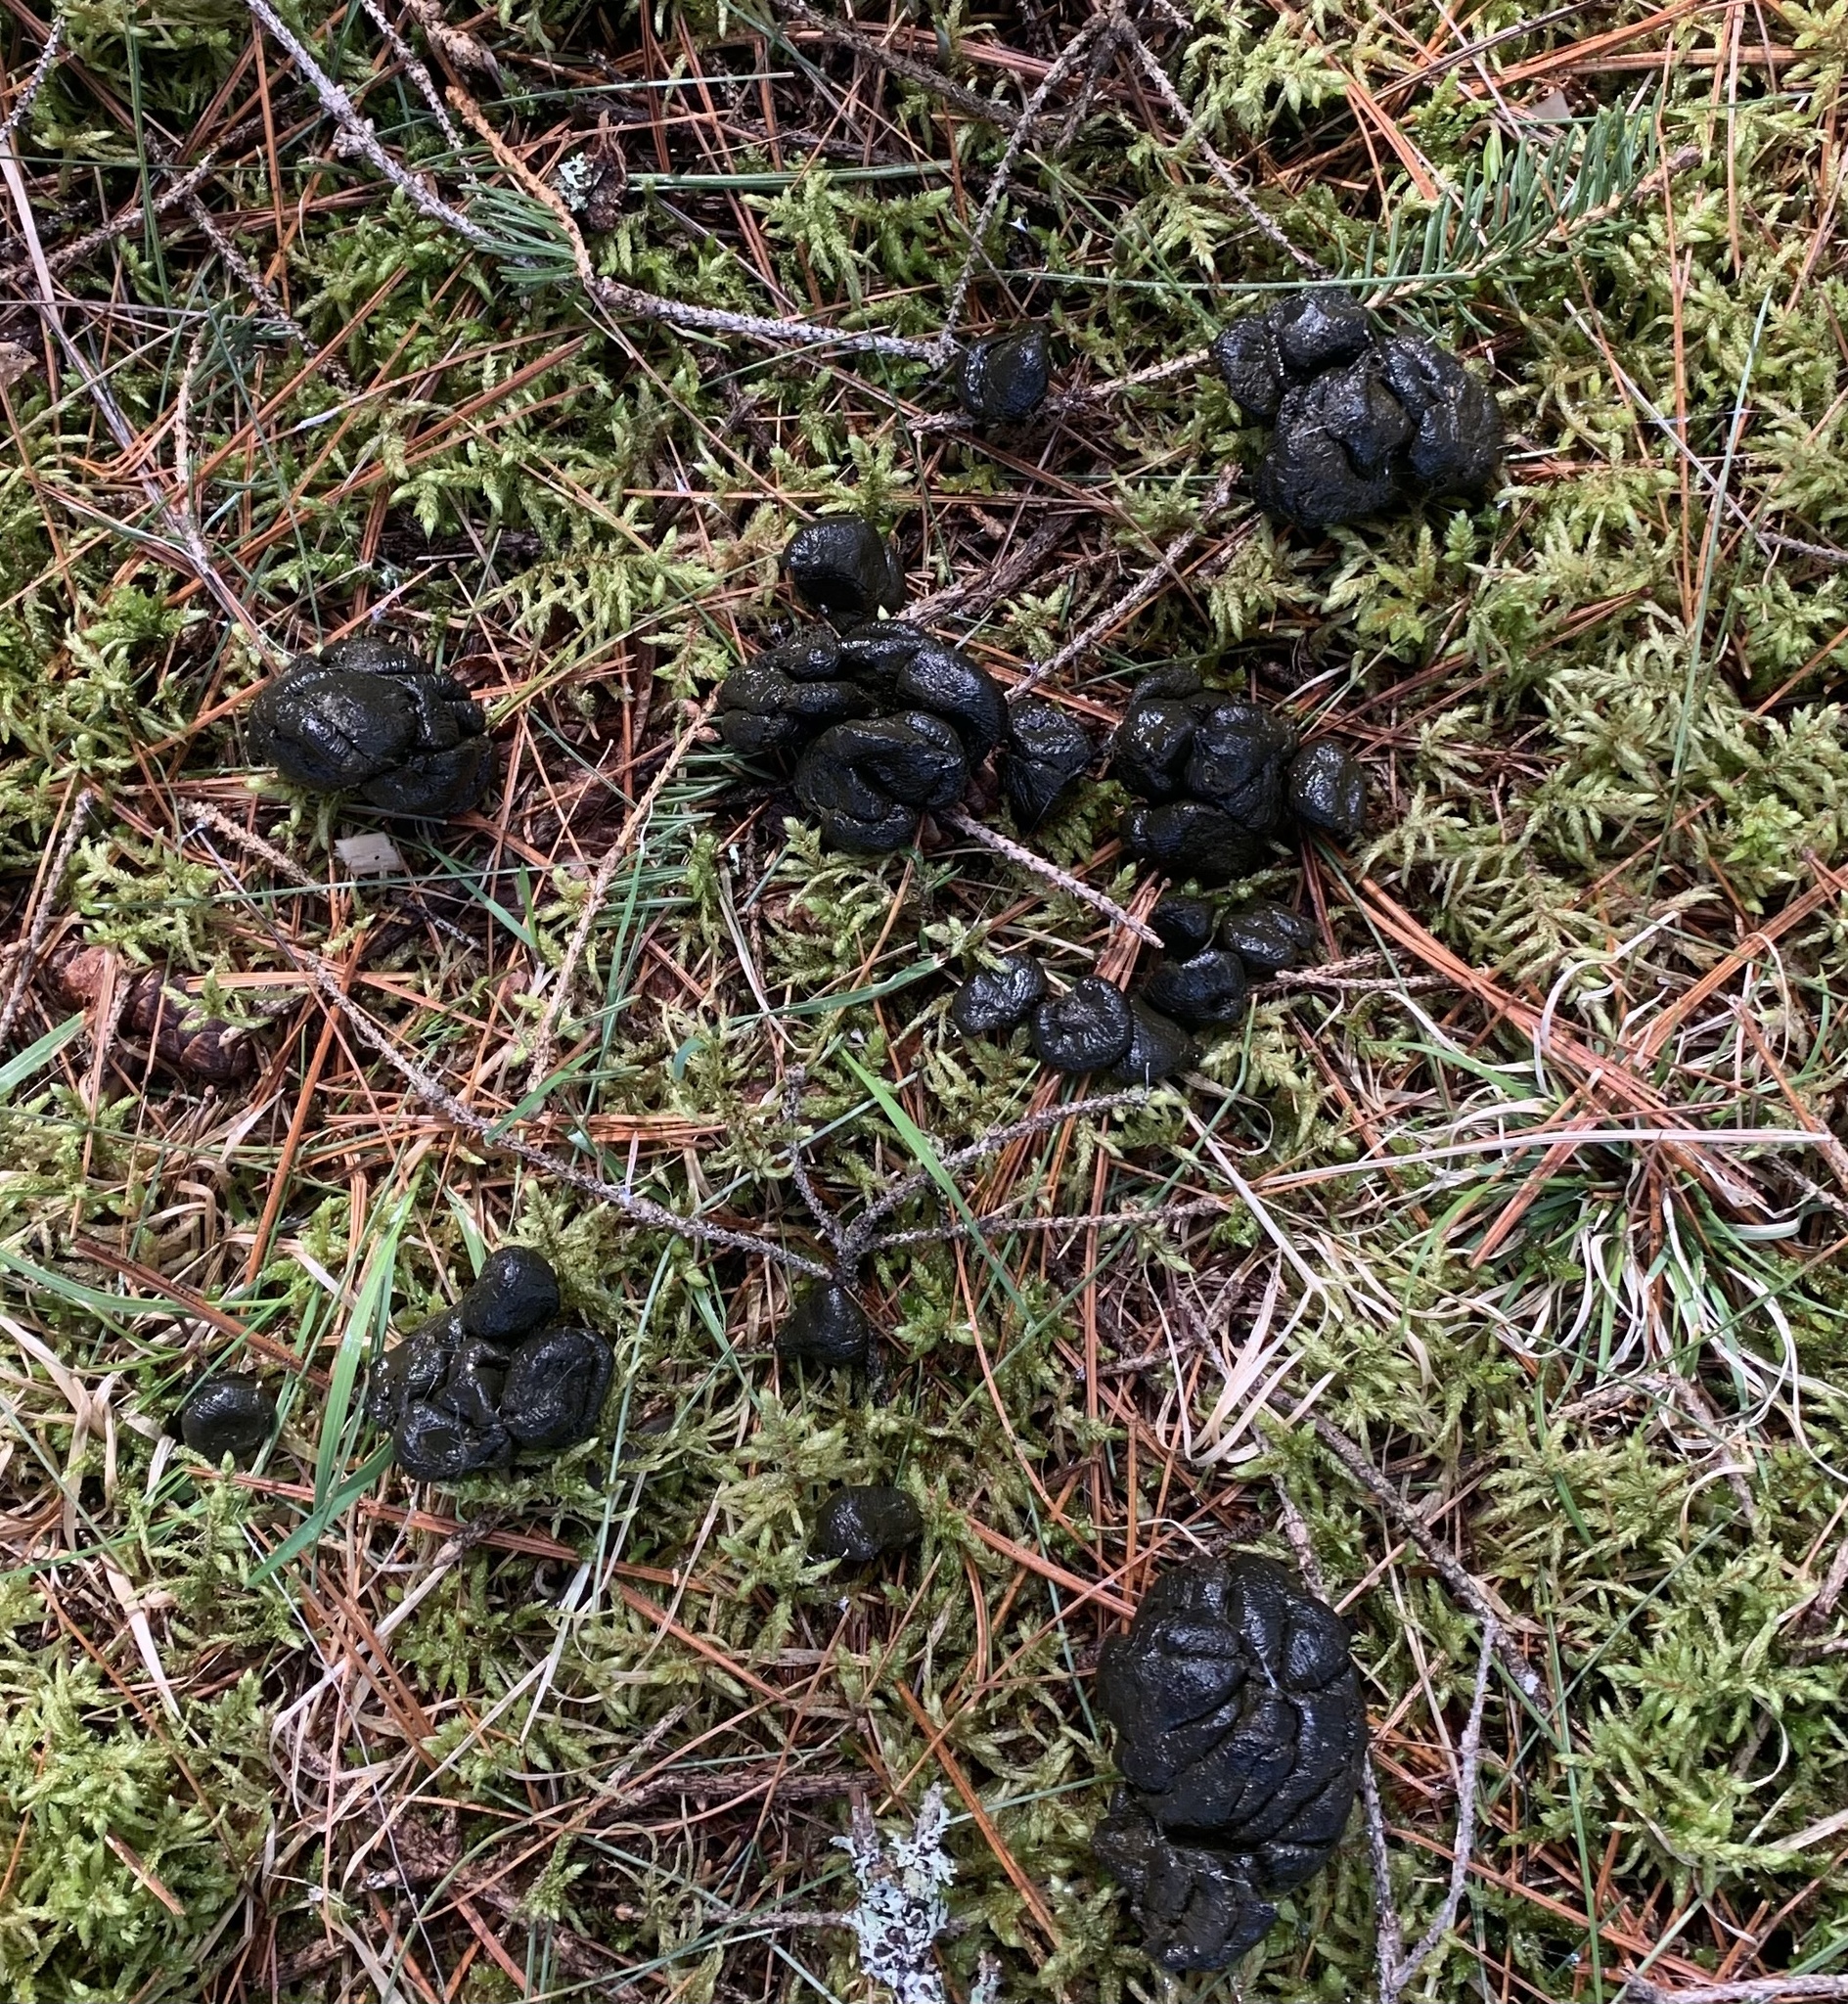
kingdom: Animalia
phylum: Chordata
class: Mammalia
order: Artiodactyla
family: Cervidae
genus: Odocoileus
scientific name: Odocoileus virginianus
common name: White-tailed deer
